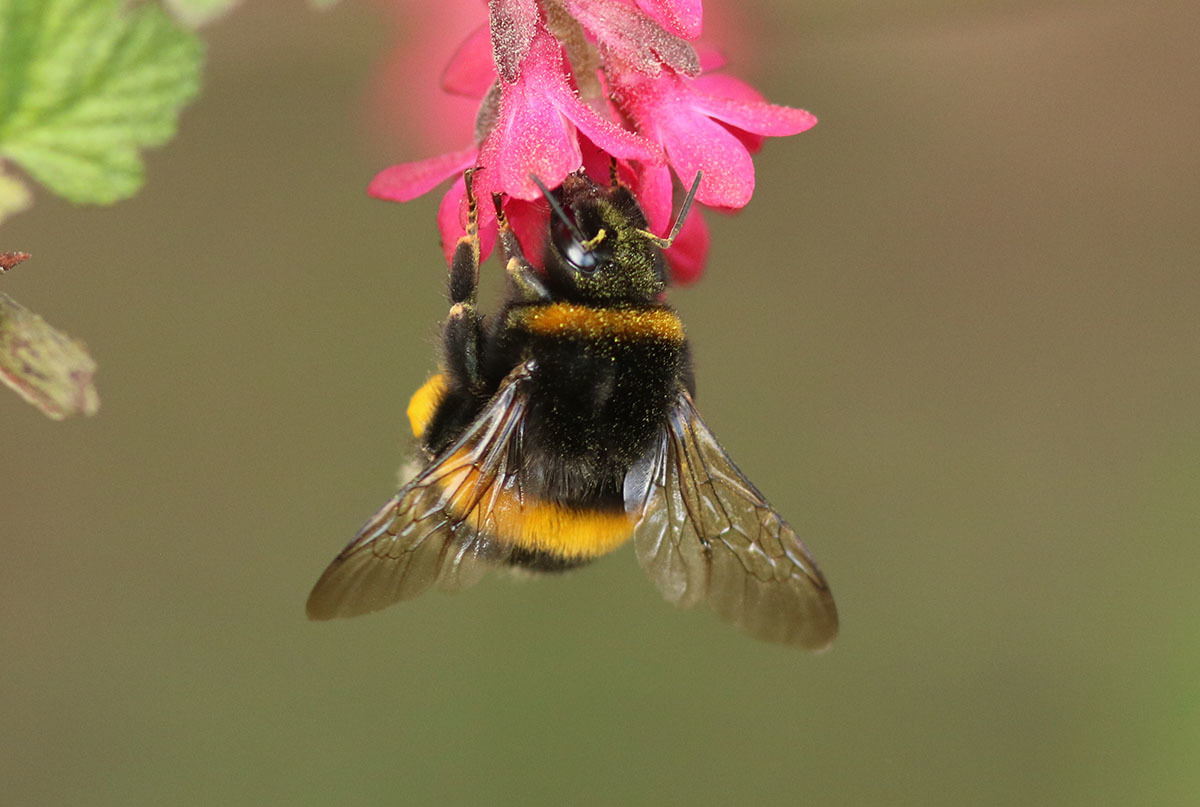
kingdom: Animalia
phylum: Arthropoda
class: Insecta
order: Hymenoptera
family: Apidae
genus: Bombus
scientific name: Bombus terrestris
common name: Buff-tailed bumblebee
